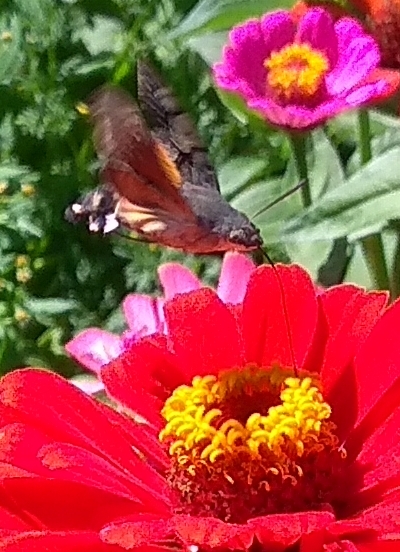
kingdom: Animalia
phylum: Arthropoda
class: Insecta
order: Lepidoptera
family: Sphingidae
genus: Macroglossum
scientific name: Macroglossum stellatarum
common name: Humming-bird hawk-moth
